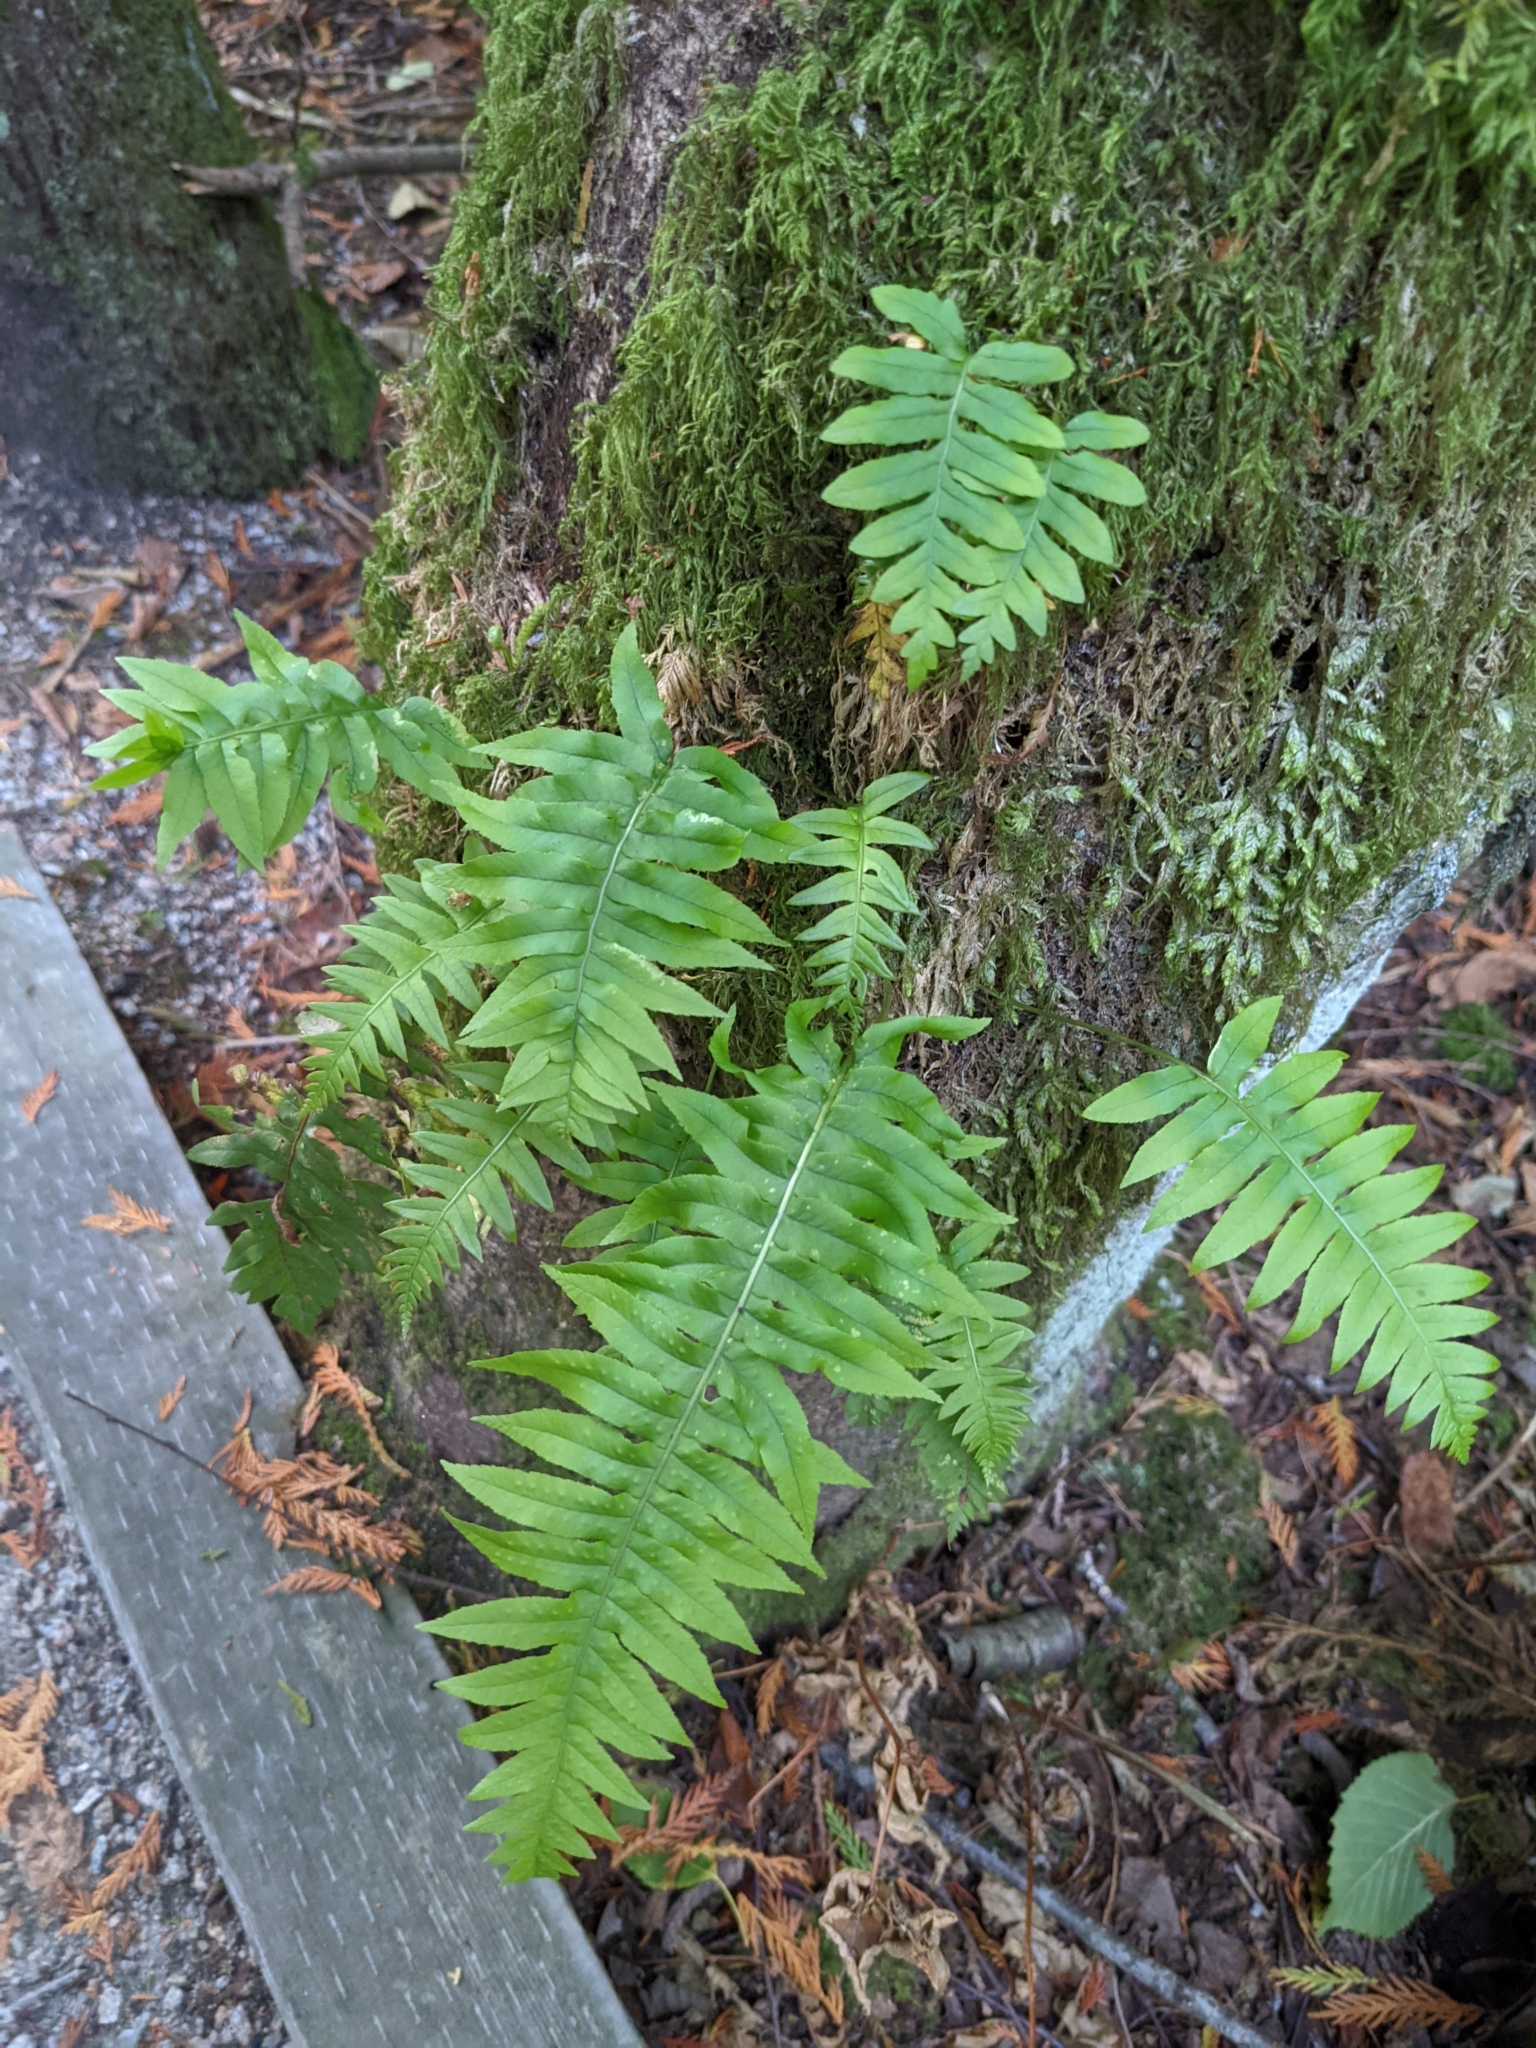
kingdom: Plantae
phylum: Tracheophyta
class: Polypodiopsida
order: Polypodiales
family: Polypodiaceae
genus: Polypodium
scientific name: Polypodium glycyrrhiza
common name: Licorice fern
